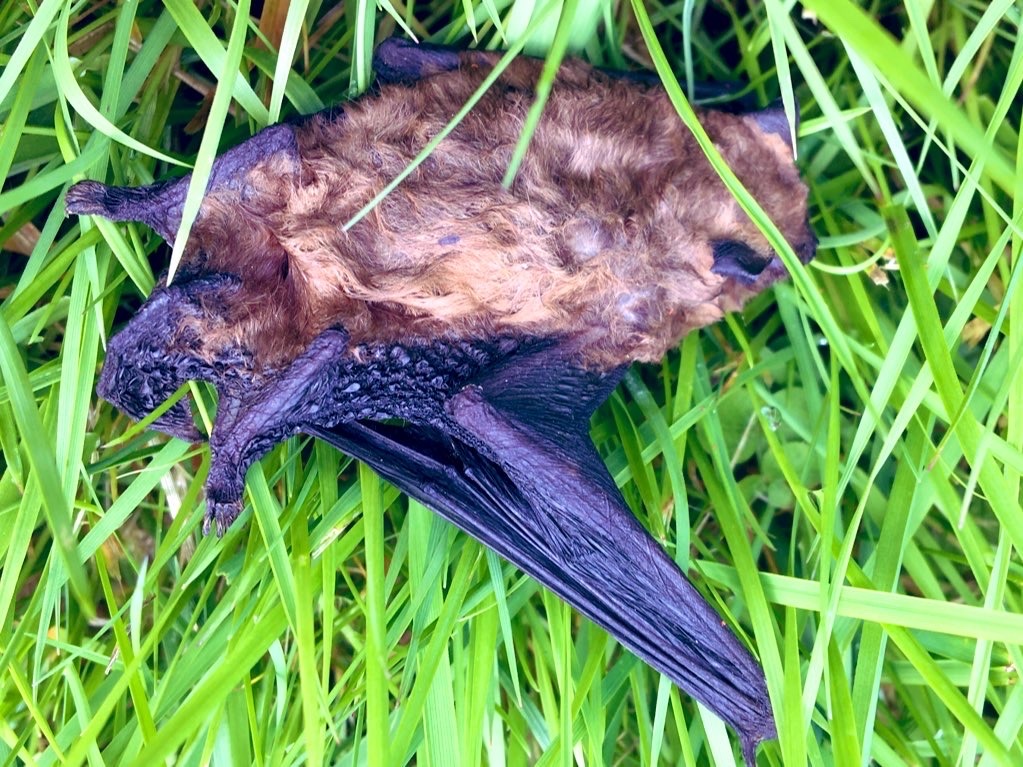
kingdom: Animalia
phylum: Chordata
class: Mammalia
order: Chiroptera
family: Vespertilionidae
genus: Nyctalus
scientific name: Nyctalus noctula
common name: Noctule
